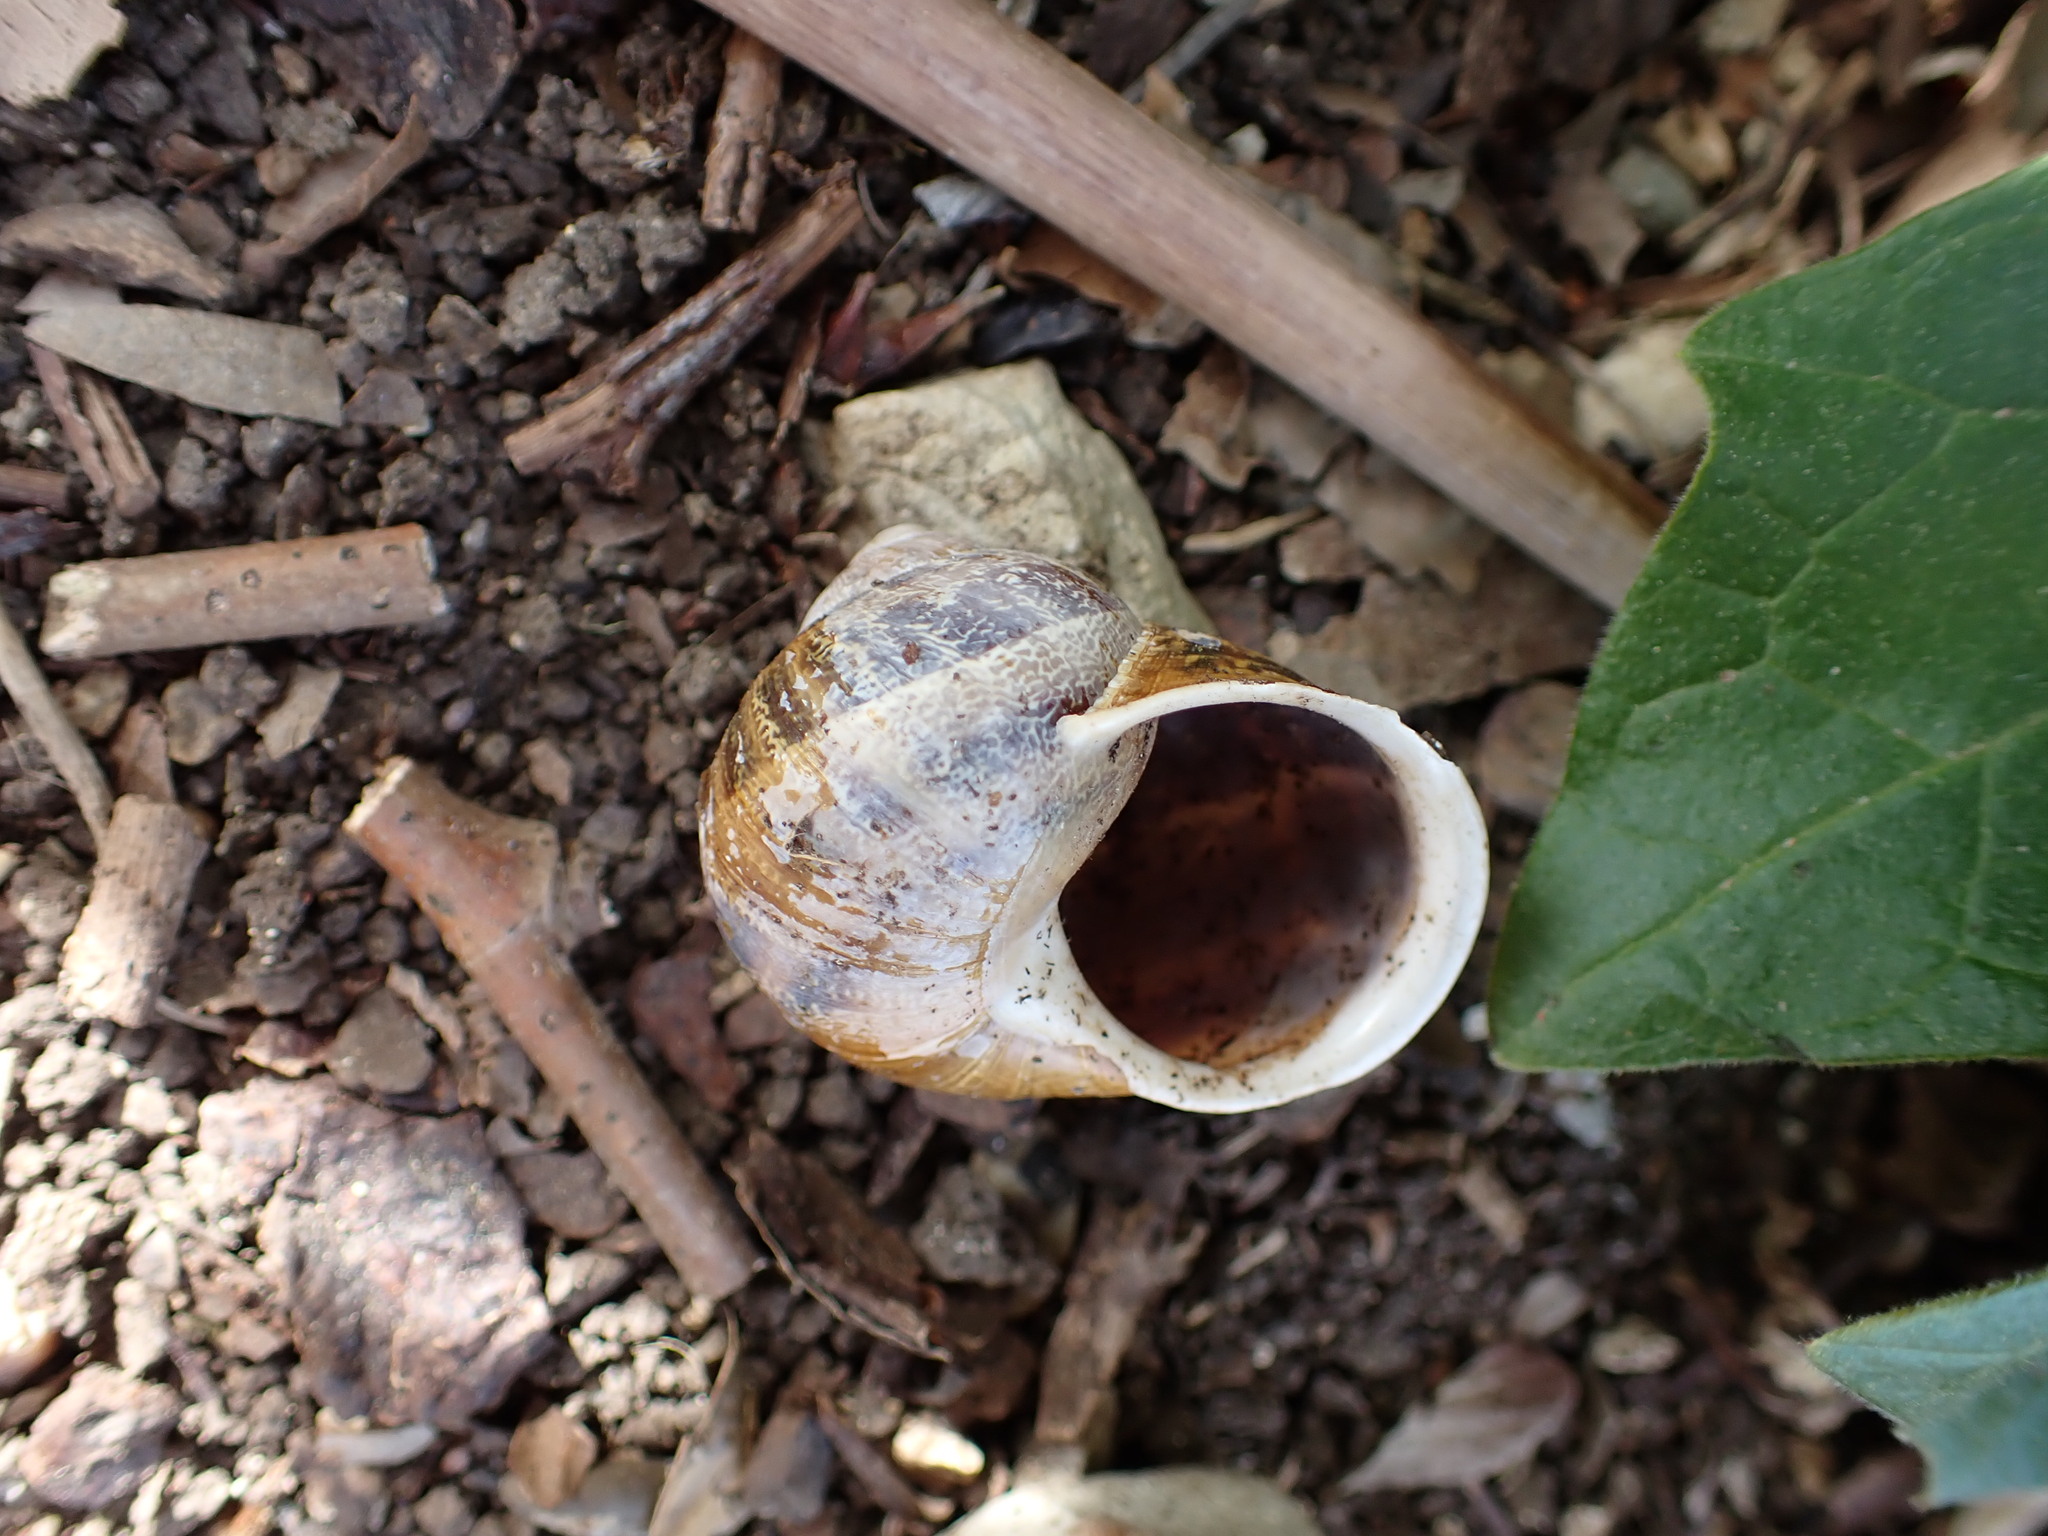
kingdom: Animalia
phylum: Mollusca
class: Gastropoda
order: Stylommatophora
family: Helicidae
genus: Cornu
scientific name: Cornu aspersum
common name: Brown garden snail
